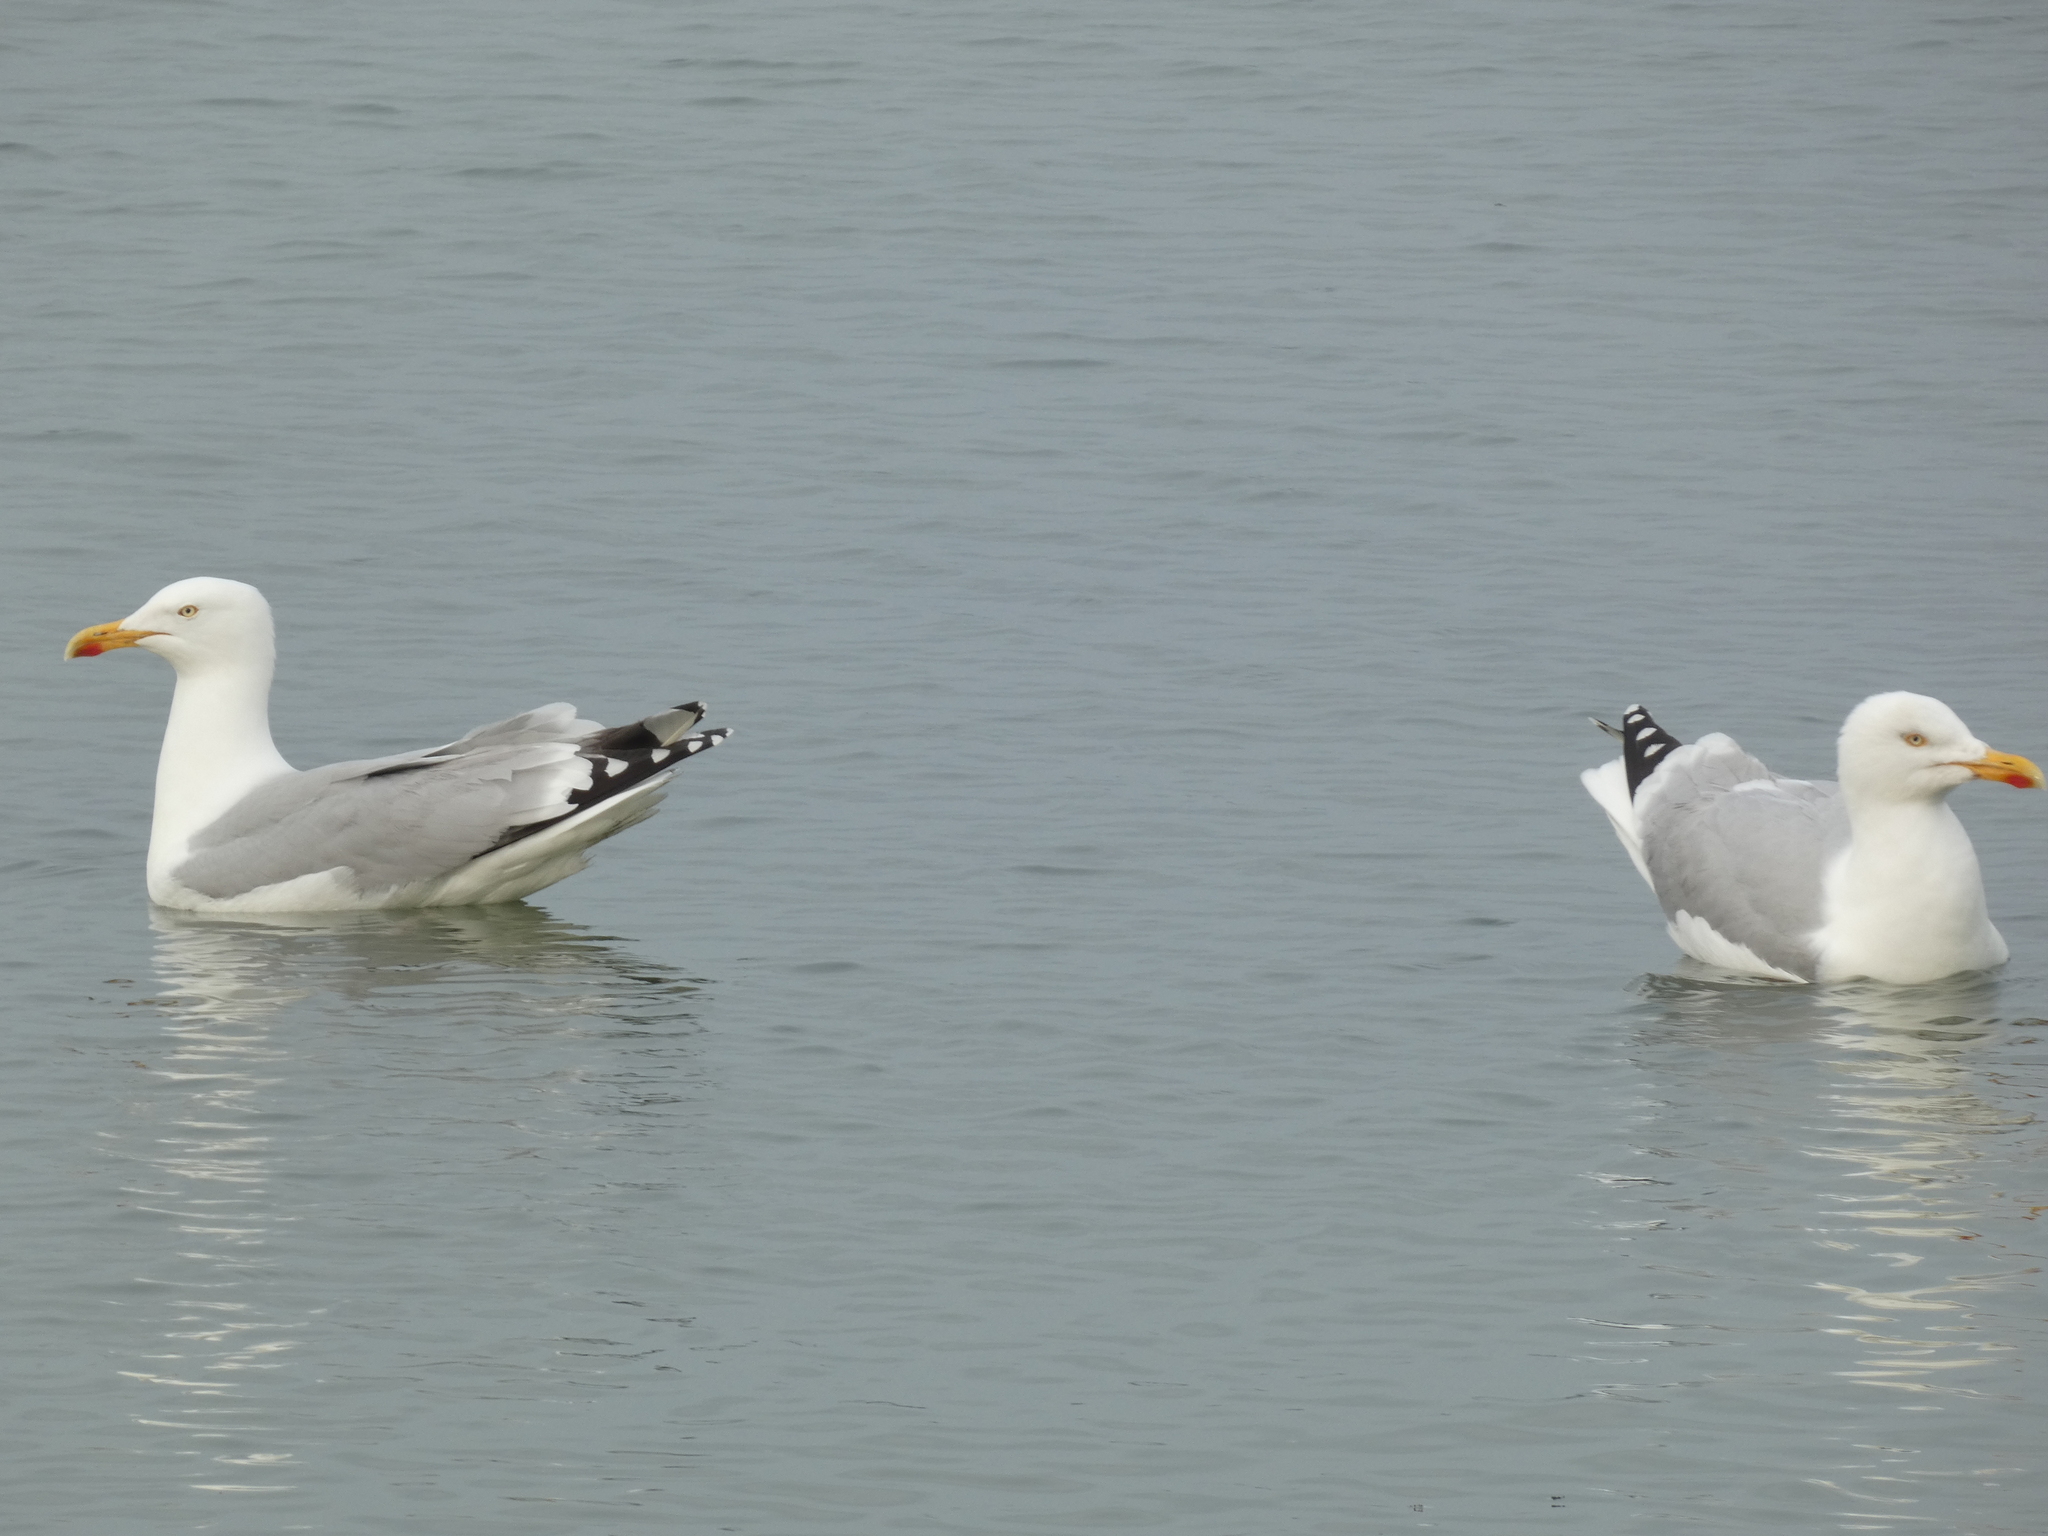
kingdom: Animalia
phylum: Chordata
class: Aves
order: Charadriiformes
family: Laridae
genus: Larus
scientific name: Larus argentatus
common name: Herring gull
